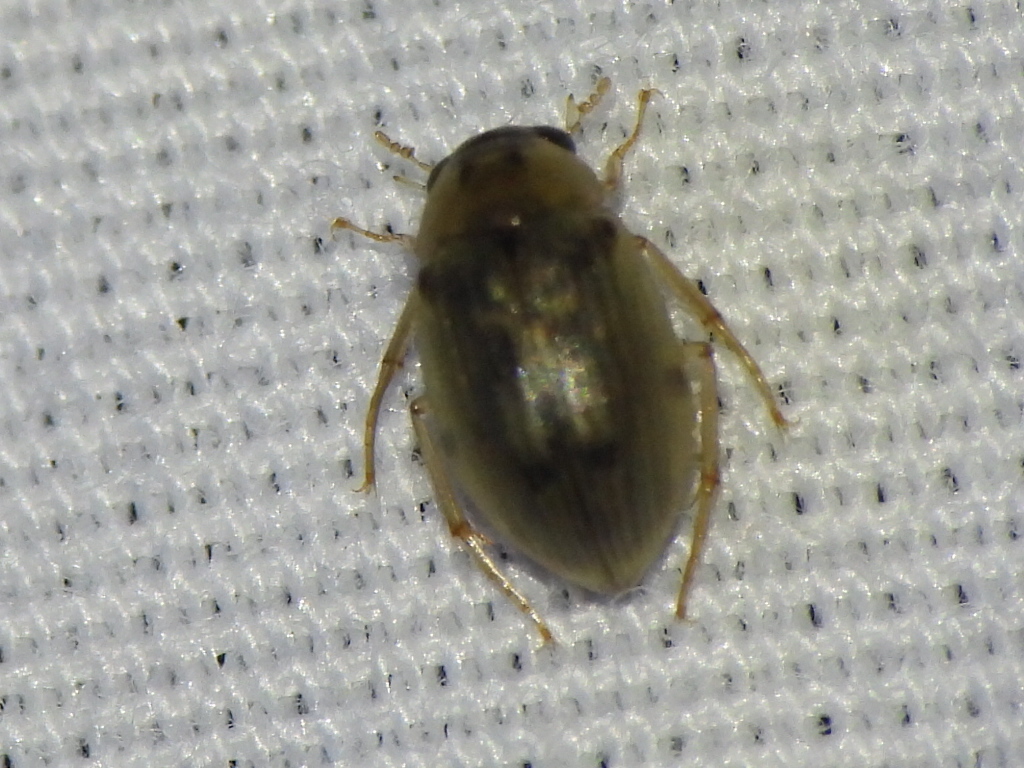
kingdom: Animalia
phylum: Arthropoda
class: Insecta
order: Coleoptera
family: Hydrophilidae
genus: Berosus
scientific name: Berosus
